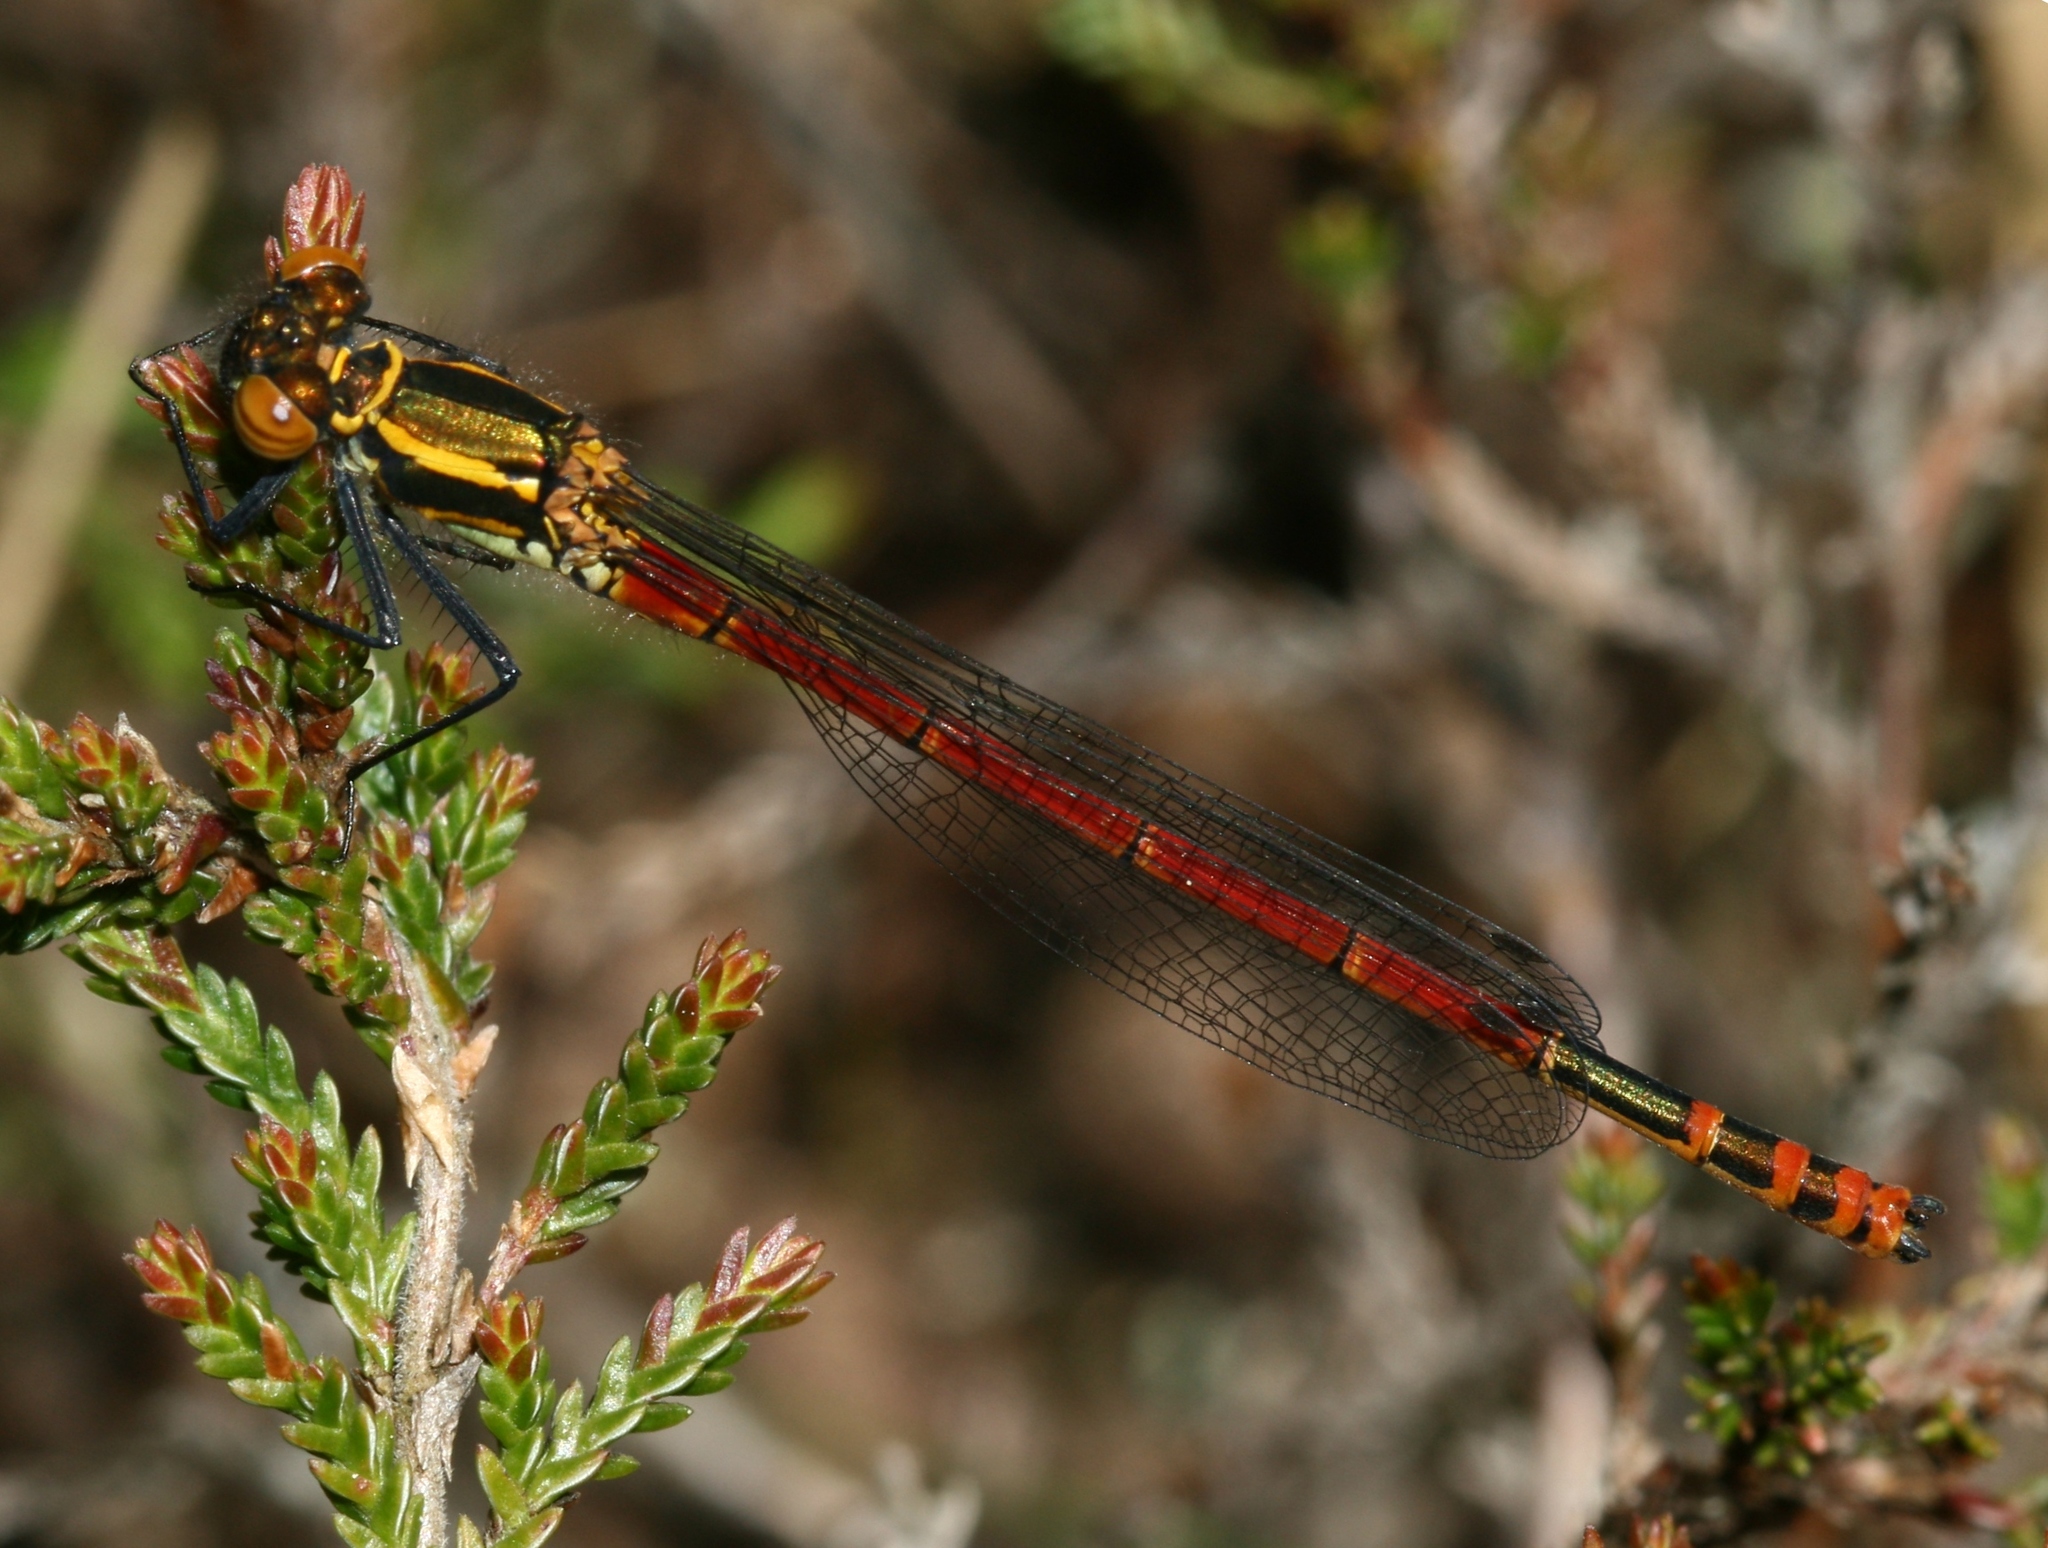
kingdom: Animalia
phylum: Arthropoda
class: Insecta
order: Odonata
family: Coenagrionidae
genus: Pyrrhosoma
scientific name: Pyrrhosoma nymphula
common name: Large red damsel
